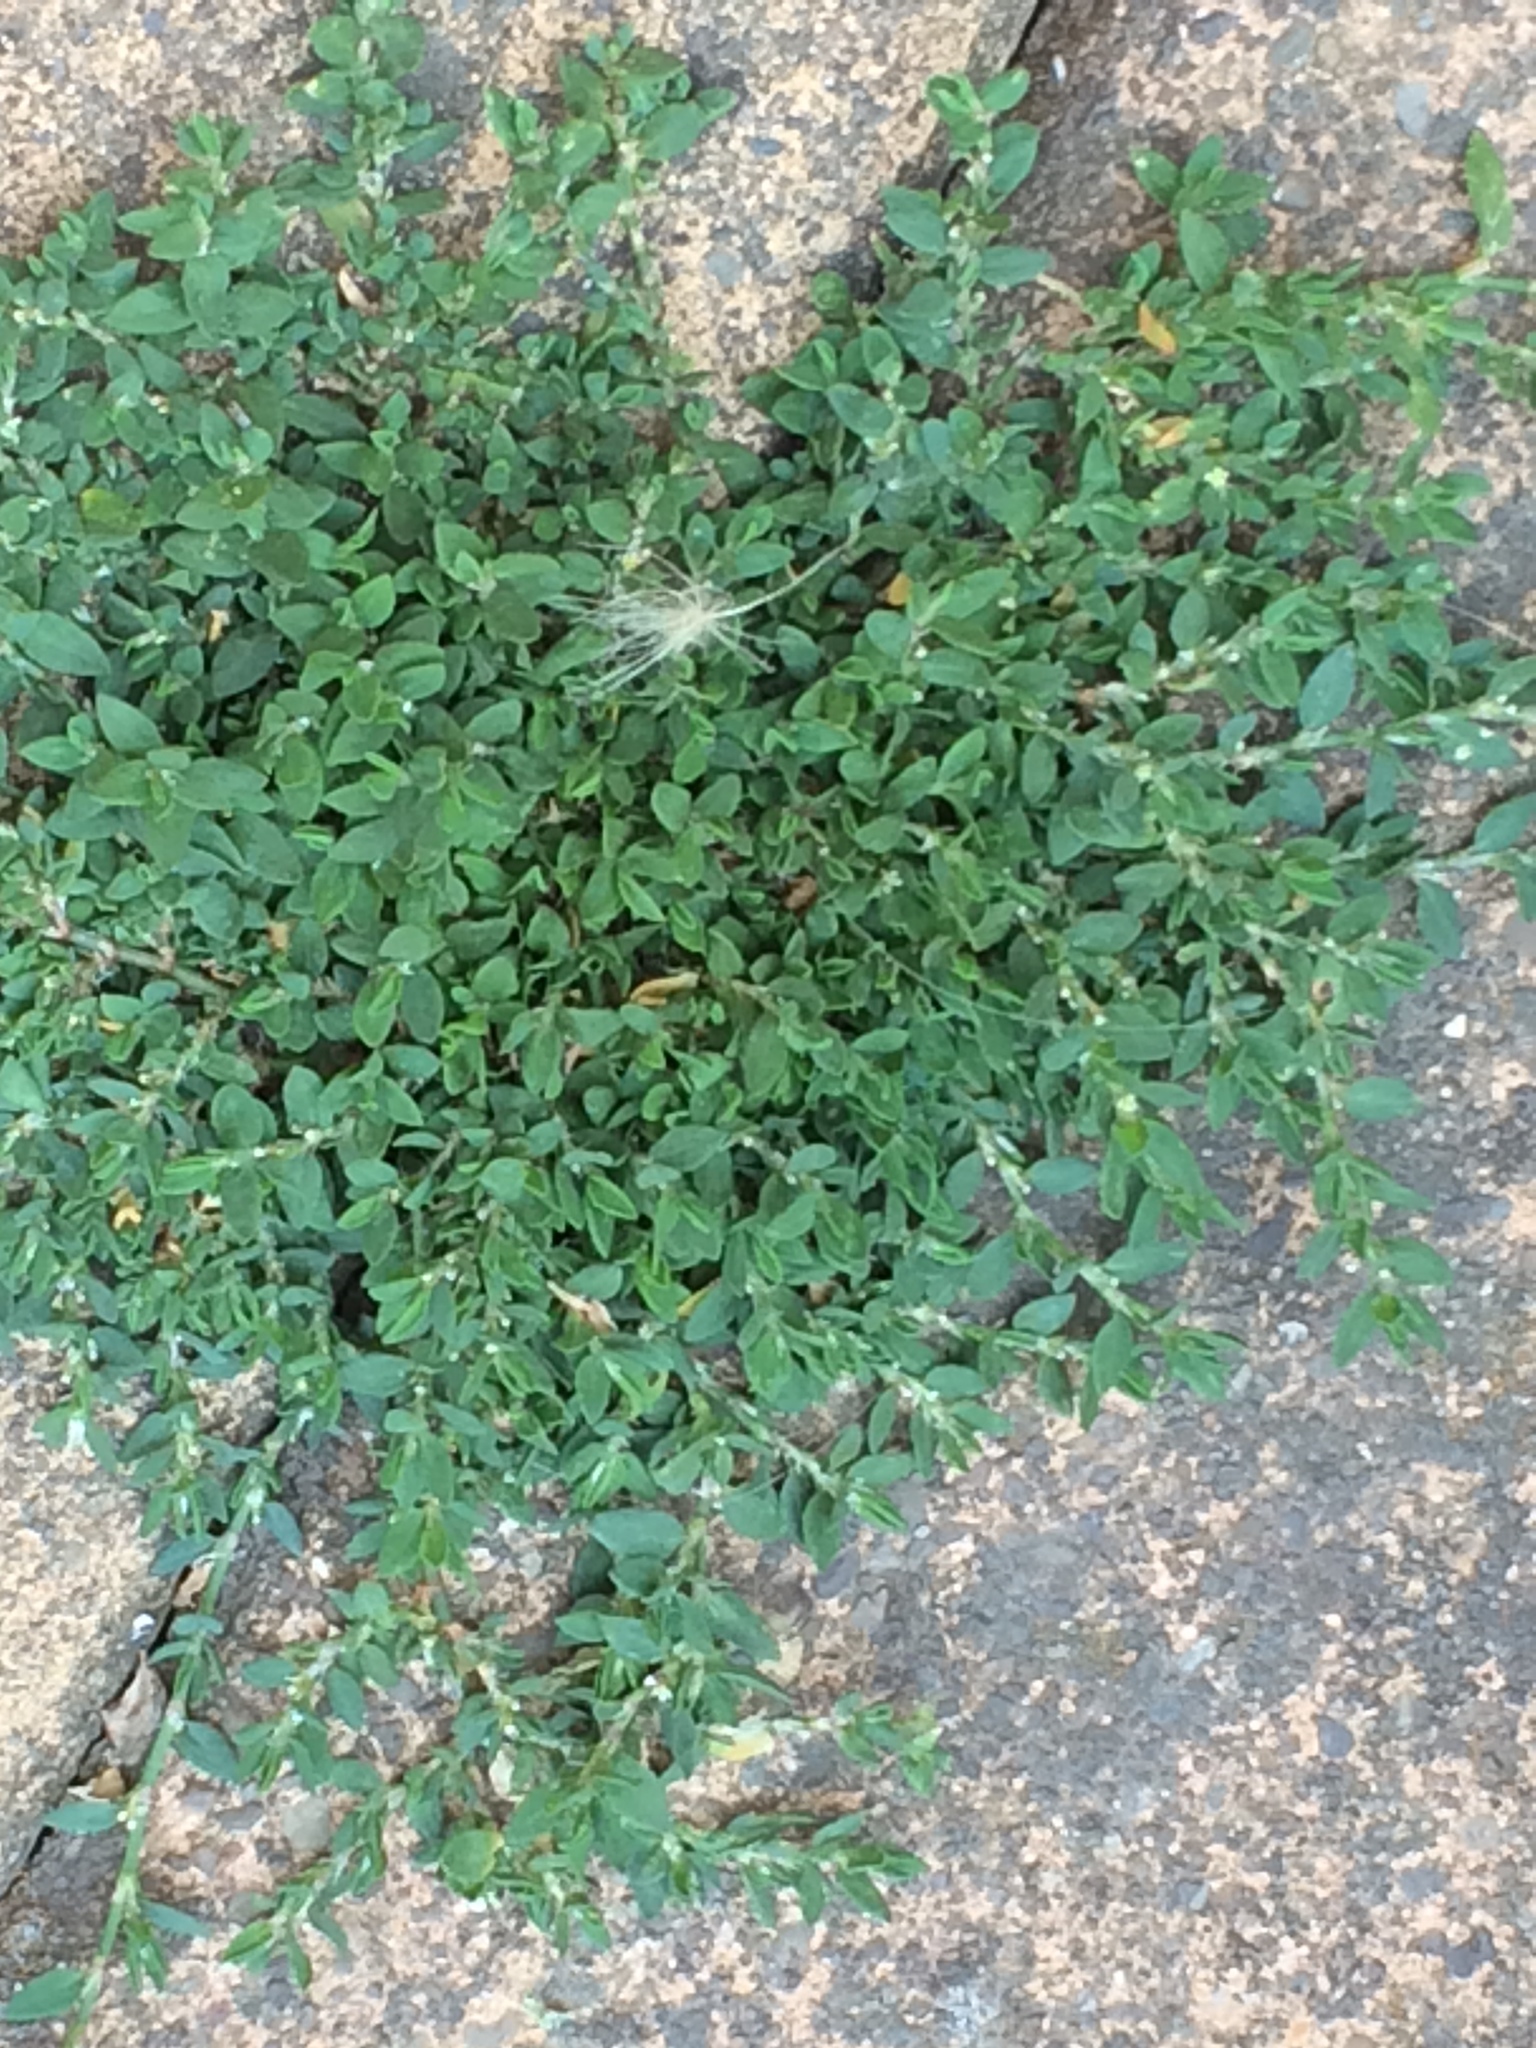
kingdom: Plantae
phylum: Tracheophyta
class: Magnoliopsida
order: Caryophyllales
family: Polygonaceae
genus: Polygonum
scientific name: Polygonum aviculare
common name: Prostrate knotweed
